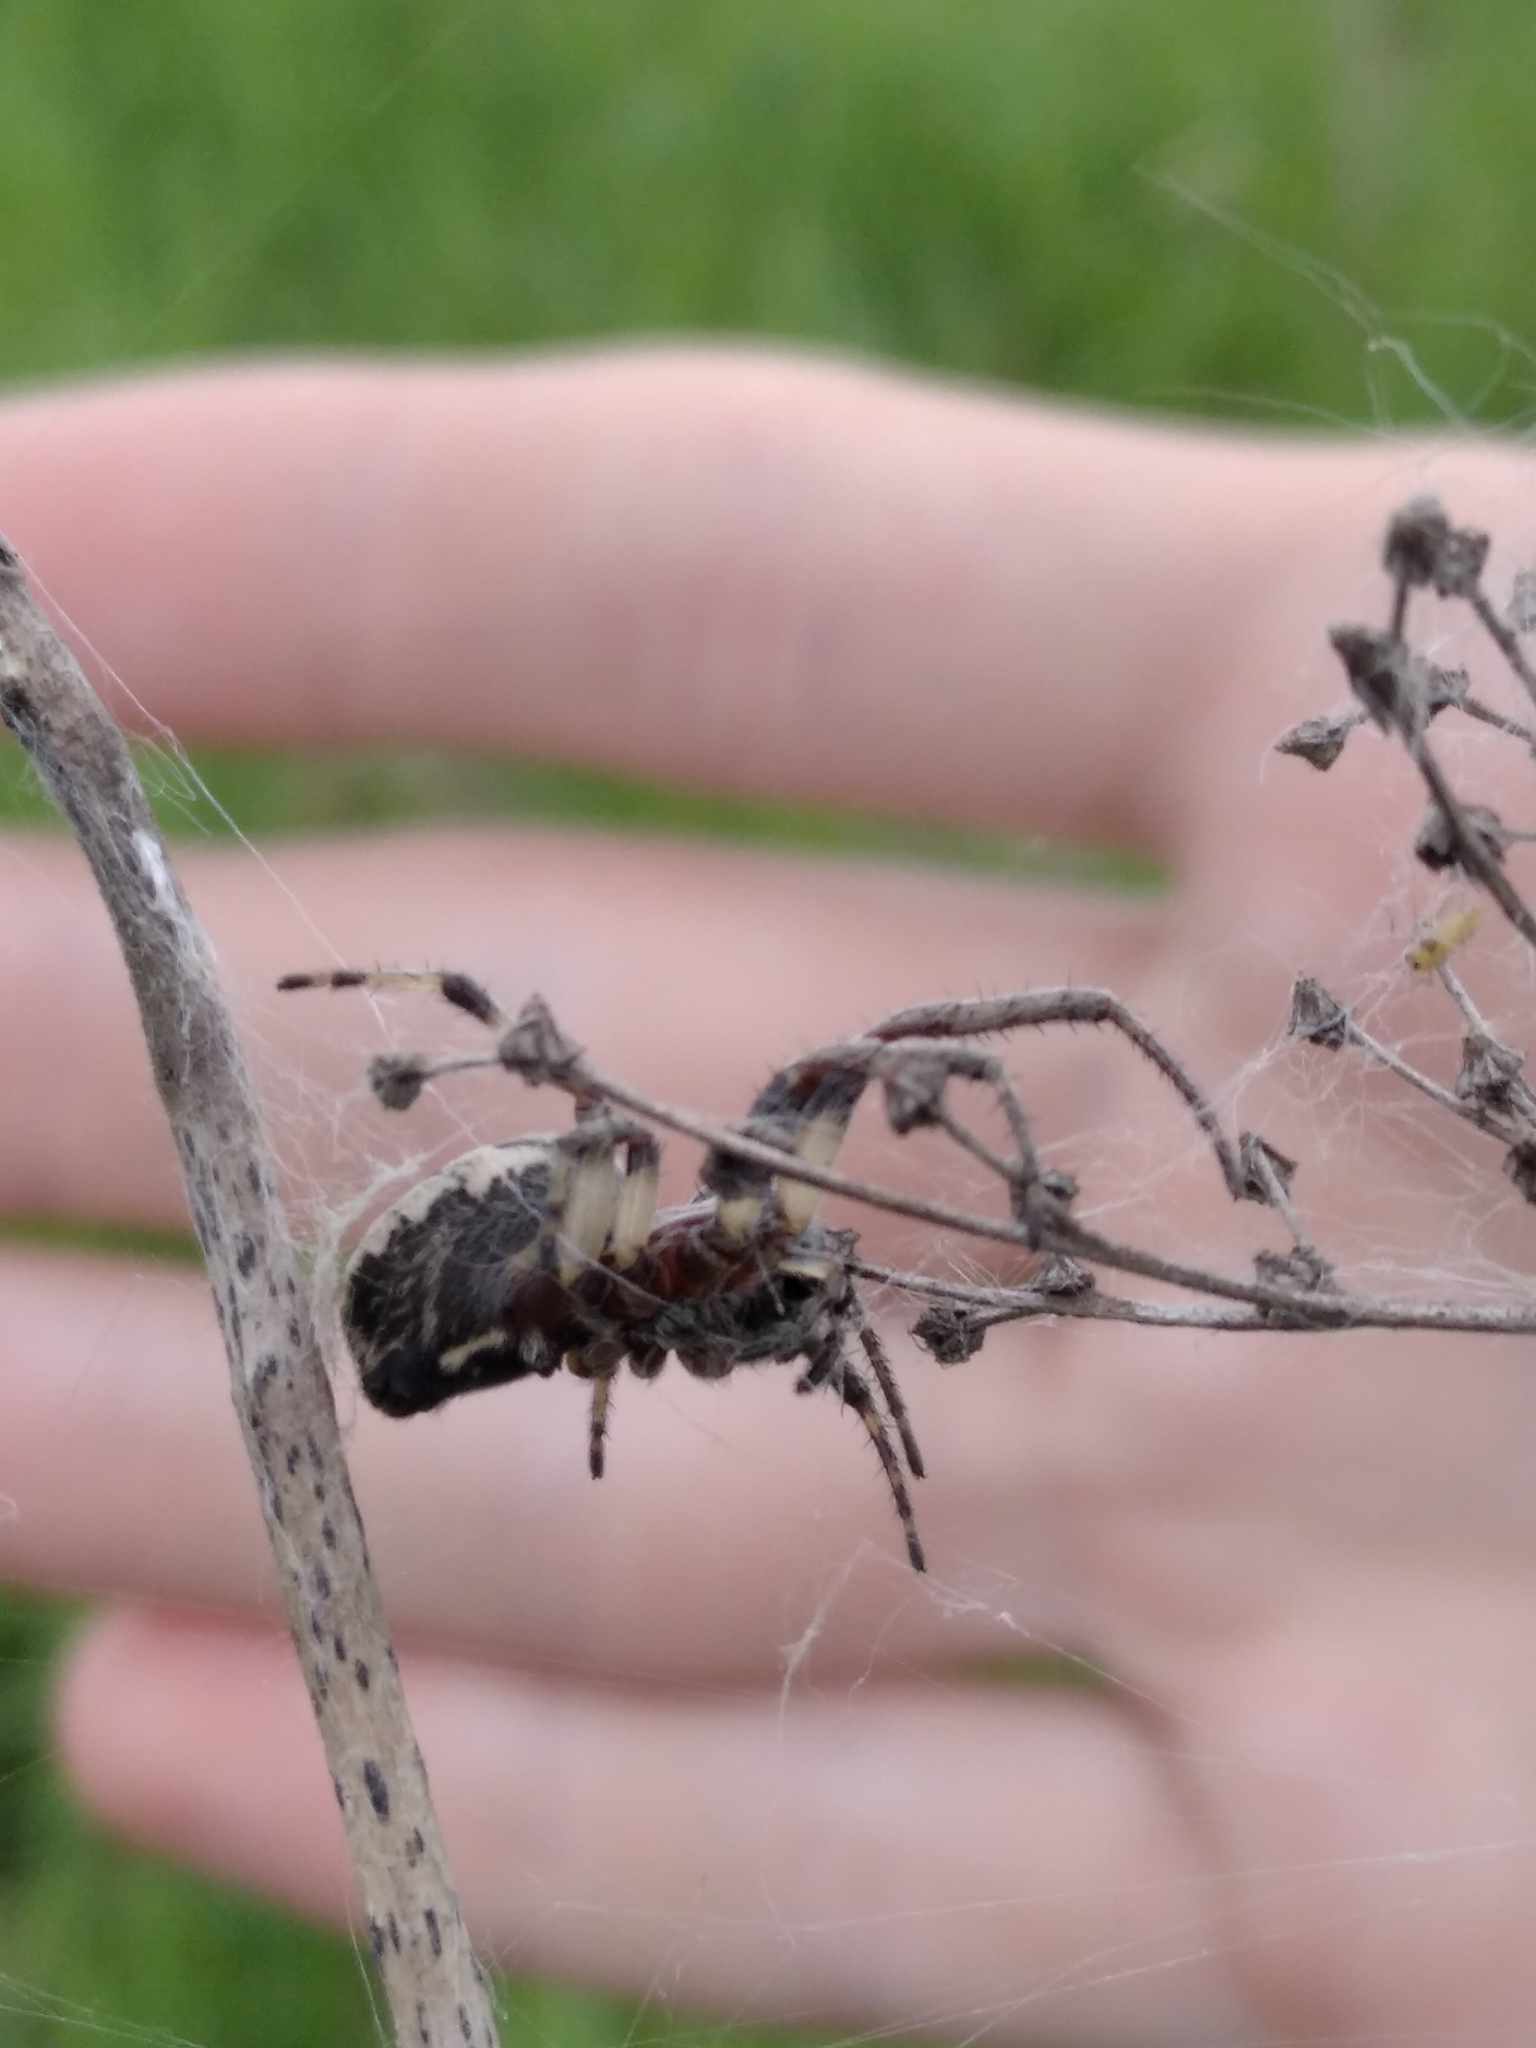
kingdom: Animalia
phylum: Arthropoda
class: Arachnida
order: Araneae
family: Araneidae
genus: Larinioides
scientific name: Larinioides cornutus
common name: Furrow orbweaver
